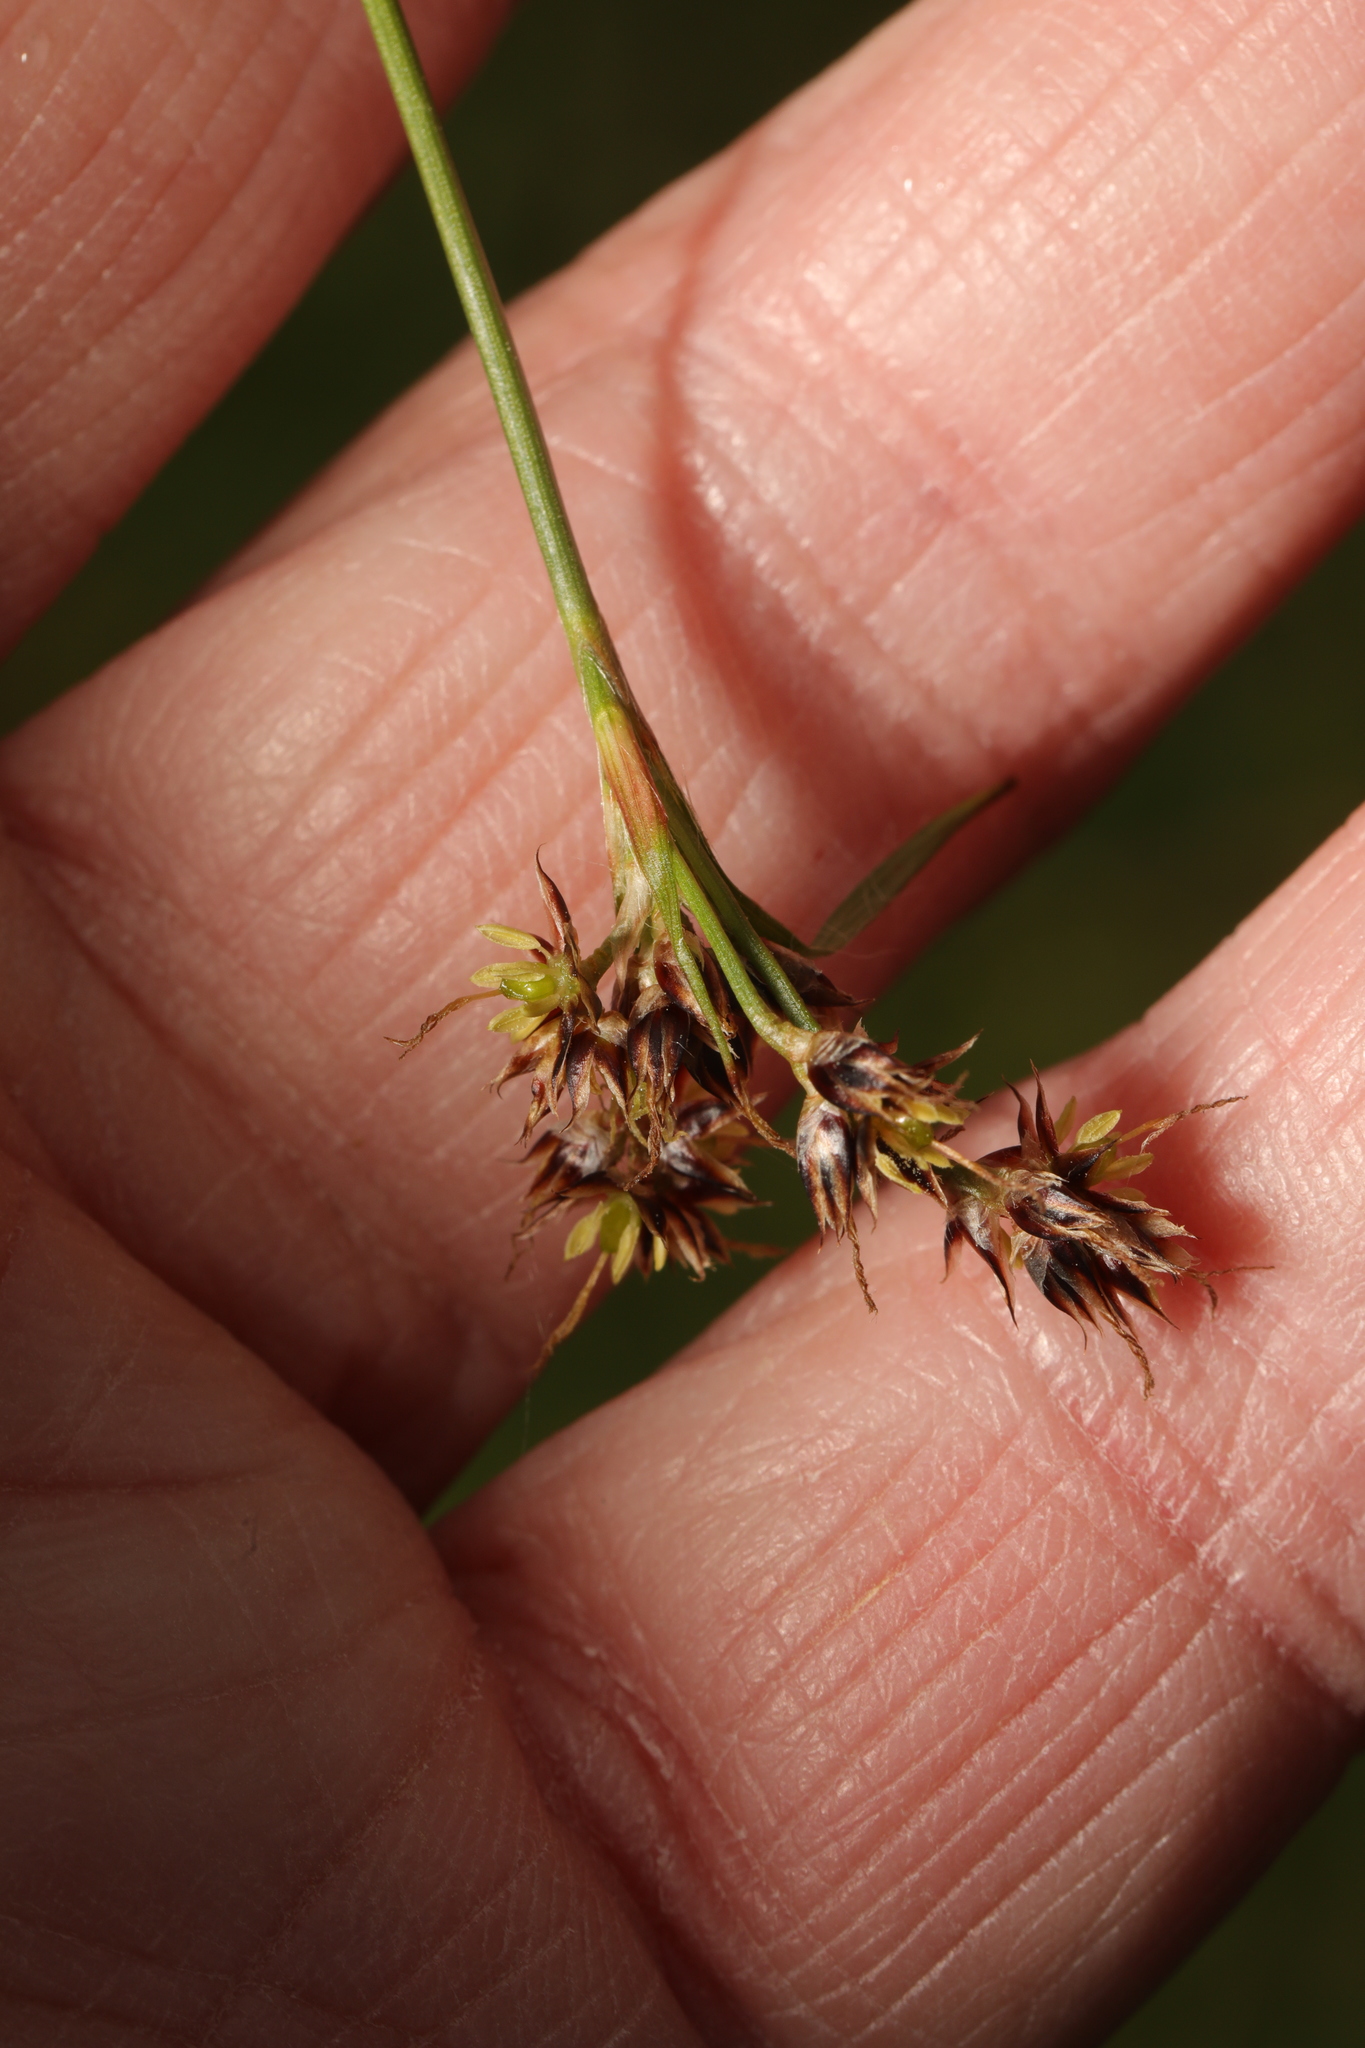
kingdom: Plantae
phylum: Tracheophyta
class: Liliopsida
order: Poales
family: Juncaceae
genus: Luzula
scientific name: Luzula campestris
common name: Field wood-rush
